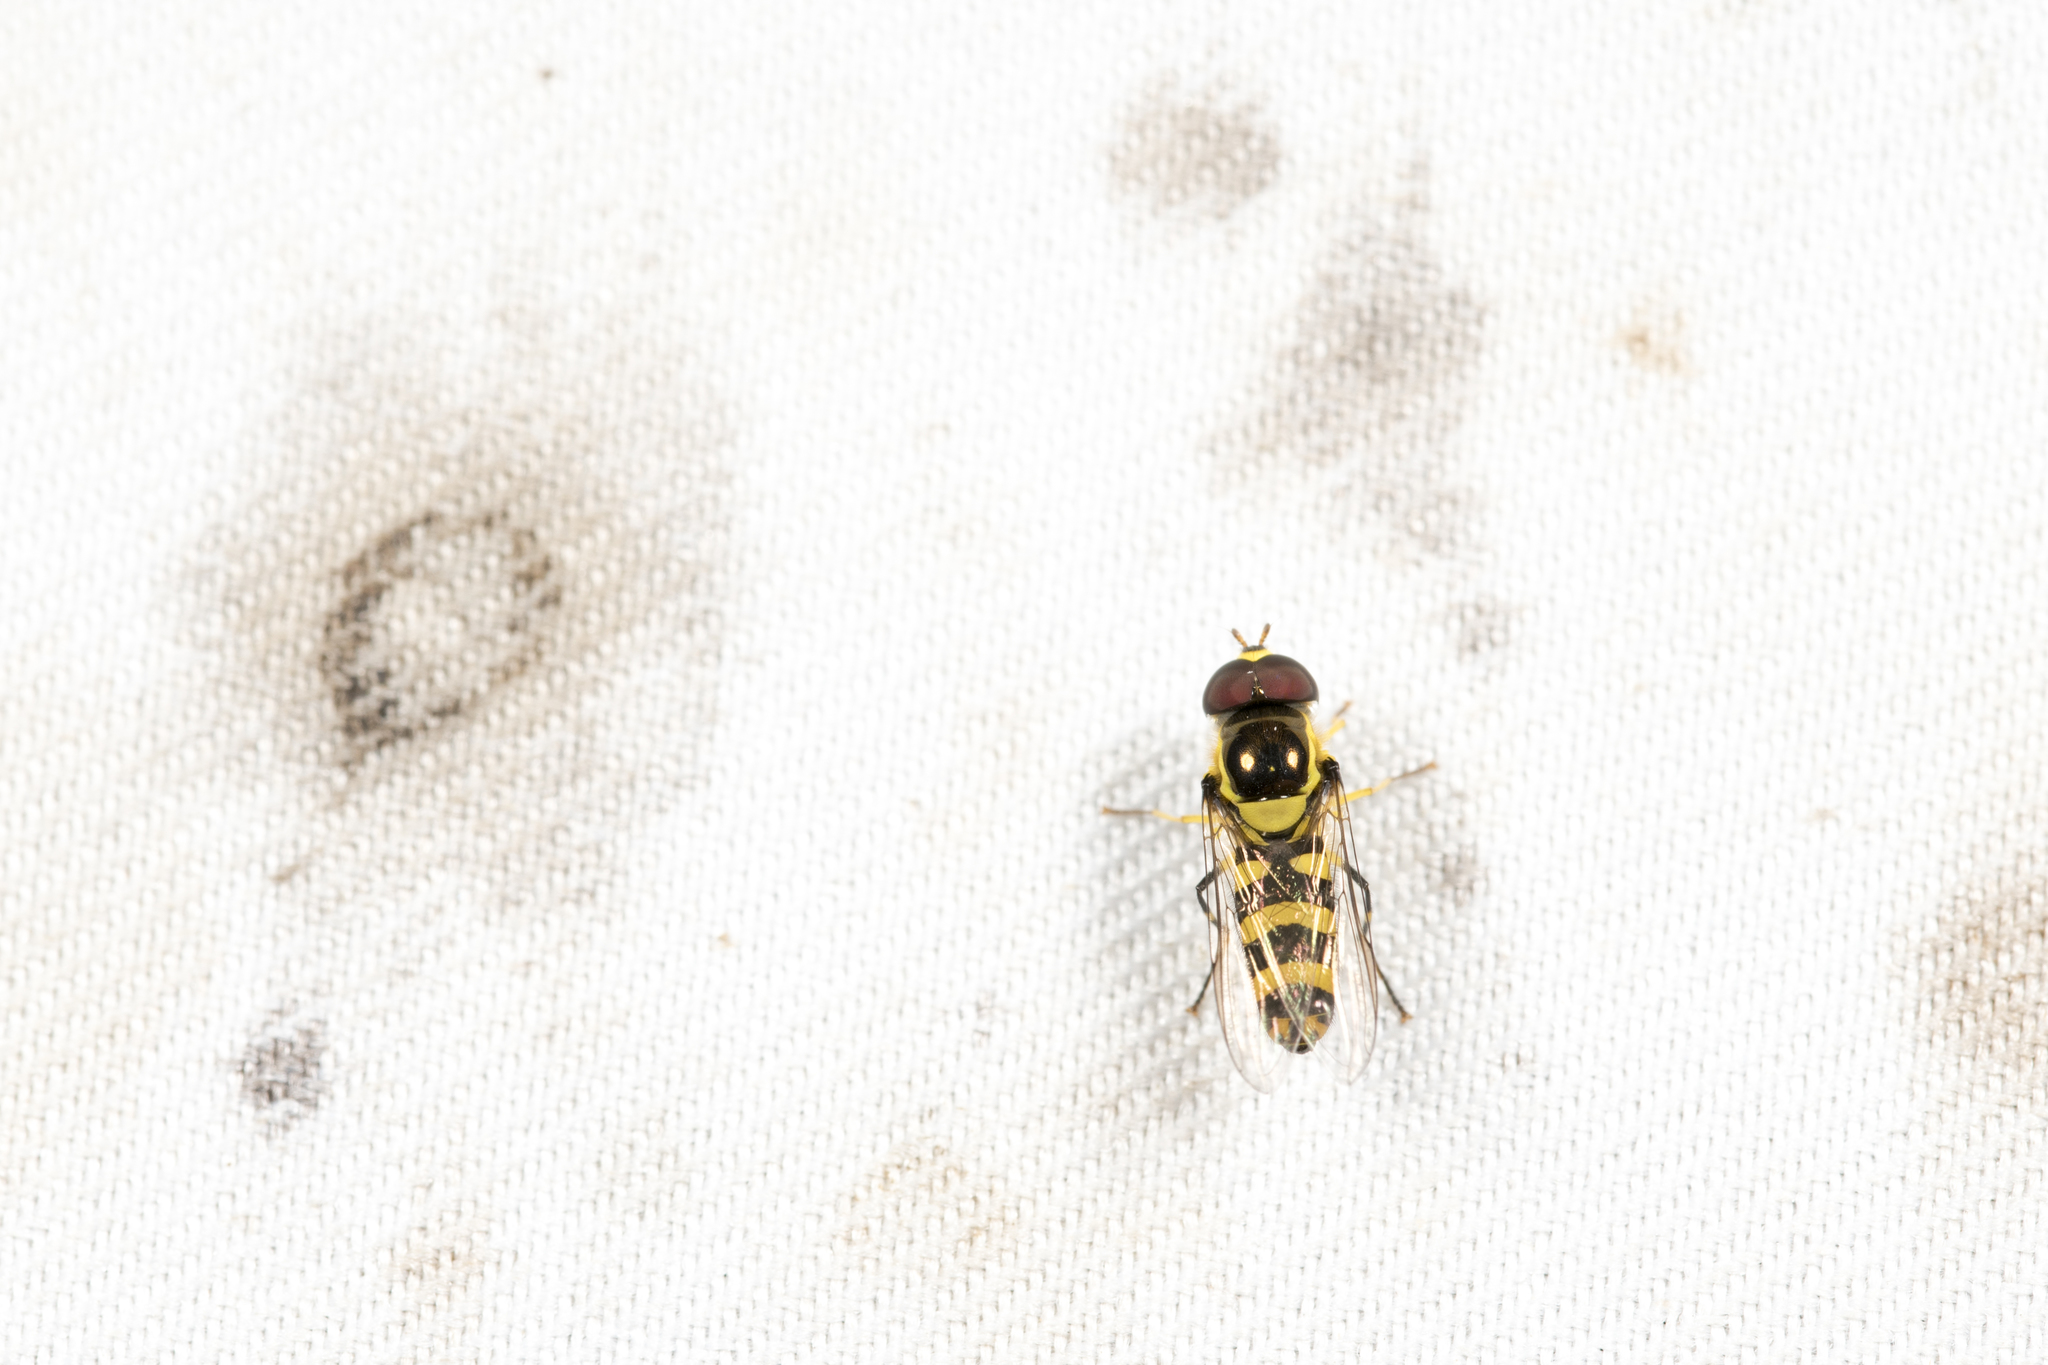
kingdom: Animalia
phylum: Arthropoda
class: Insecta
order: Diptera
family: Syrphidae
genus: Ischiodon
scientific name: Ischiodon scutellaris
